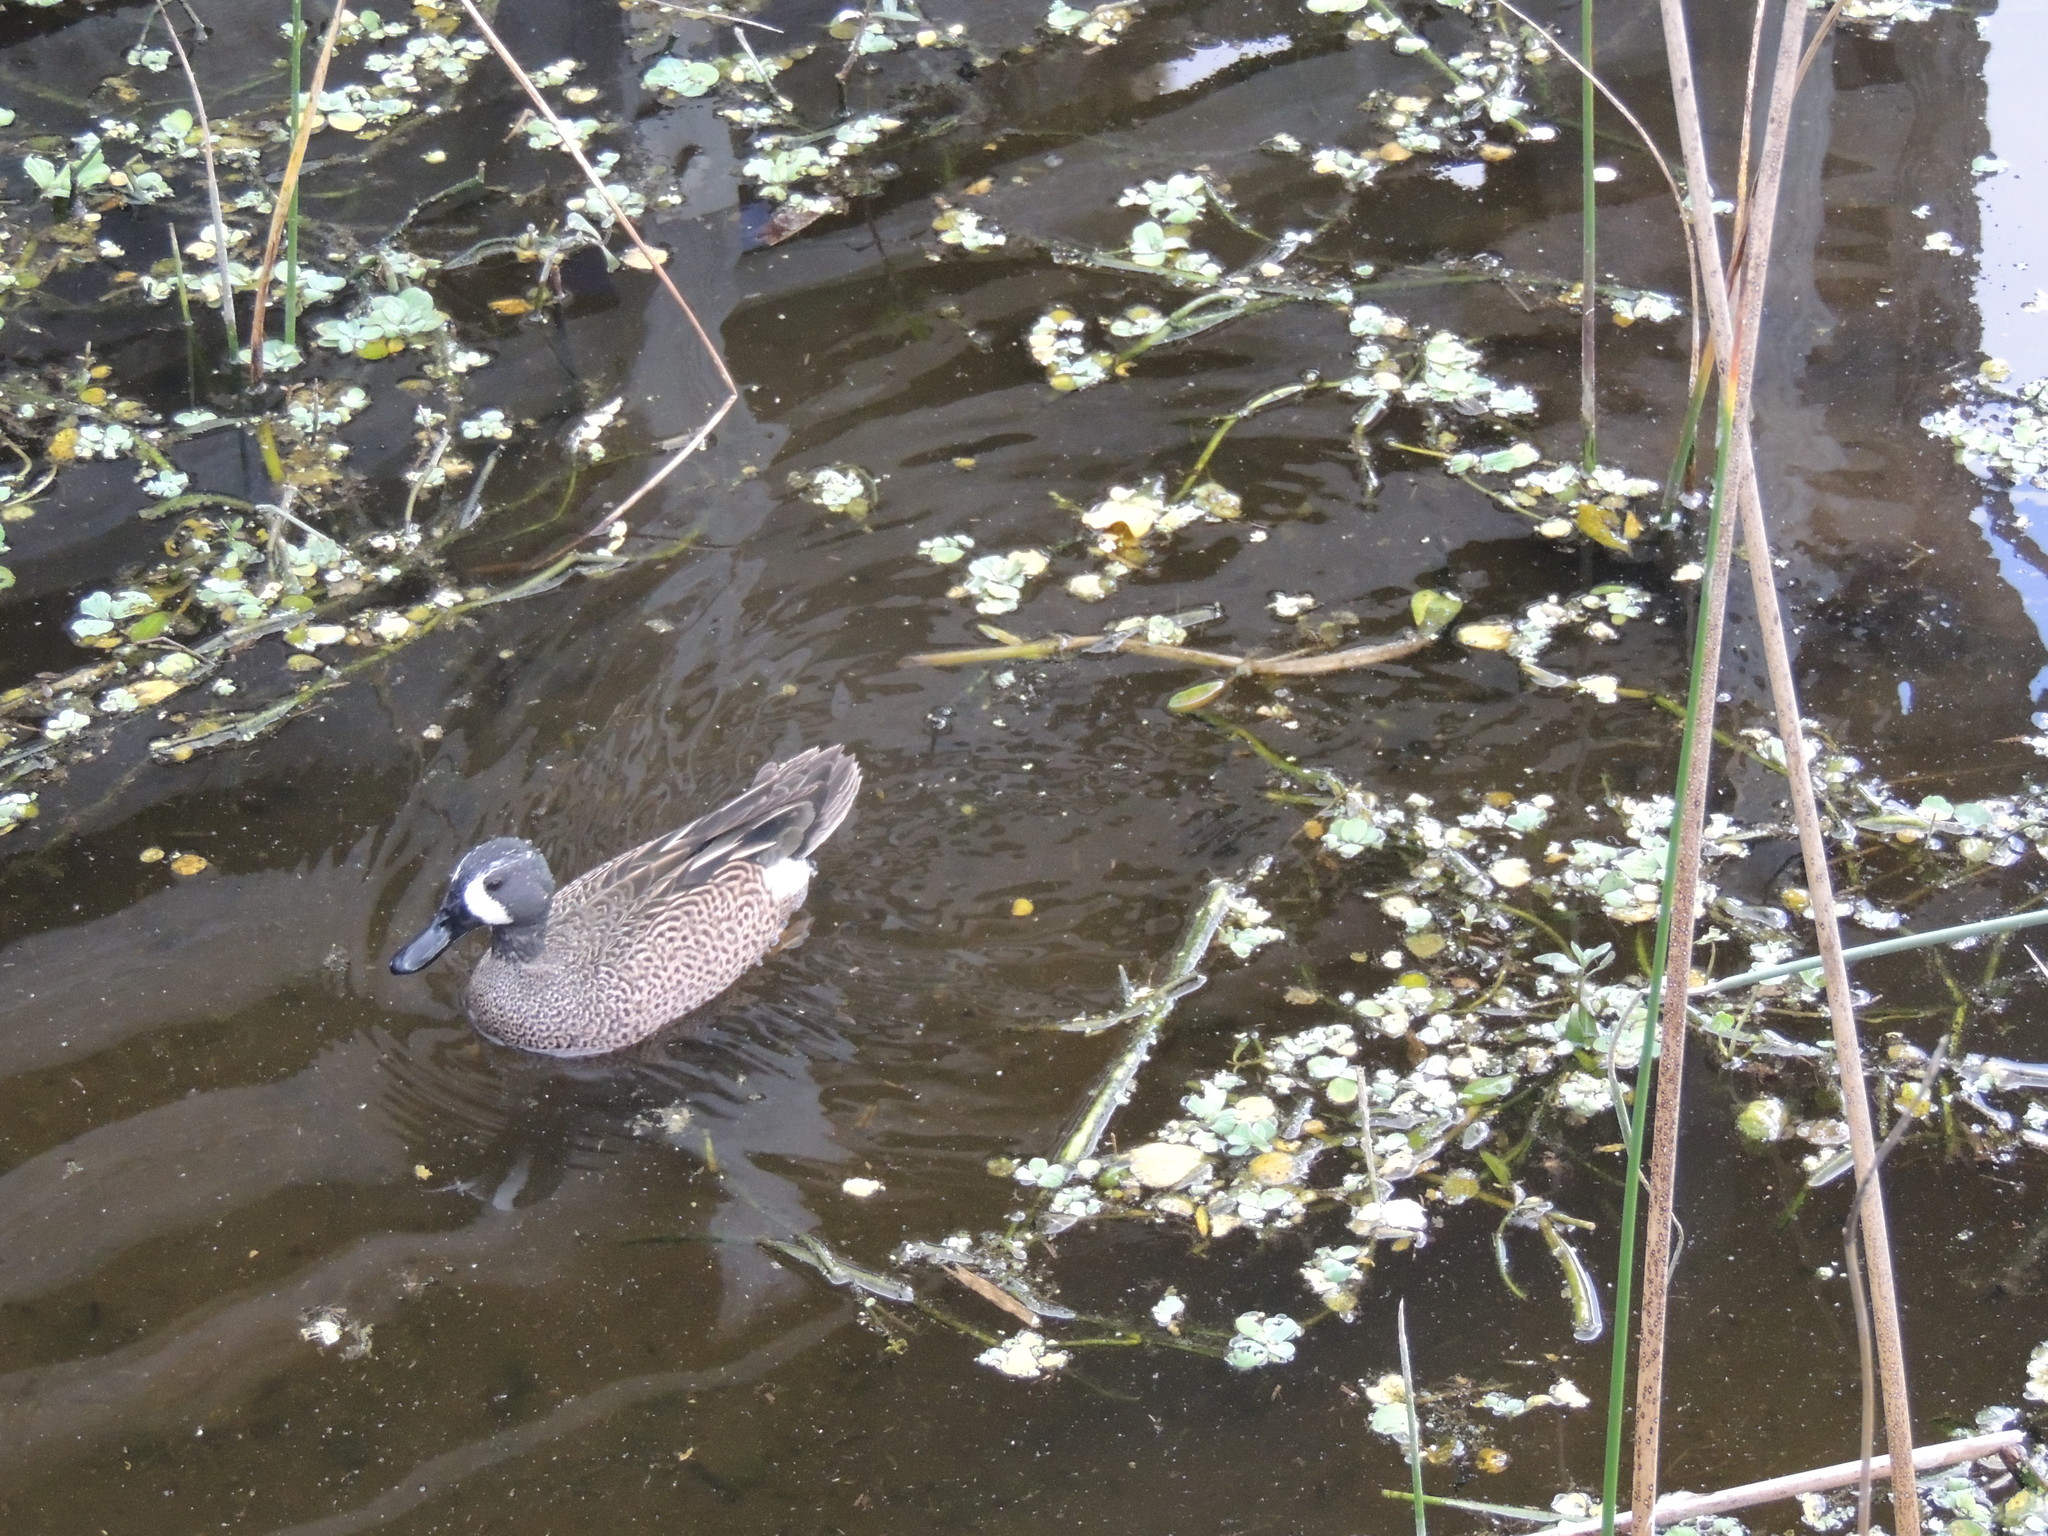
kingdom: Animalia
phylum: Chordata
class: Aves
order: Anseriformes
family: Anatidae
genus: Spatula
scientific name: Spatula discors
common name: Blue-winged teal
